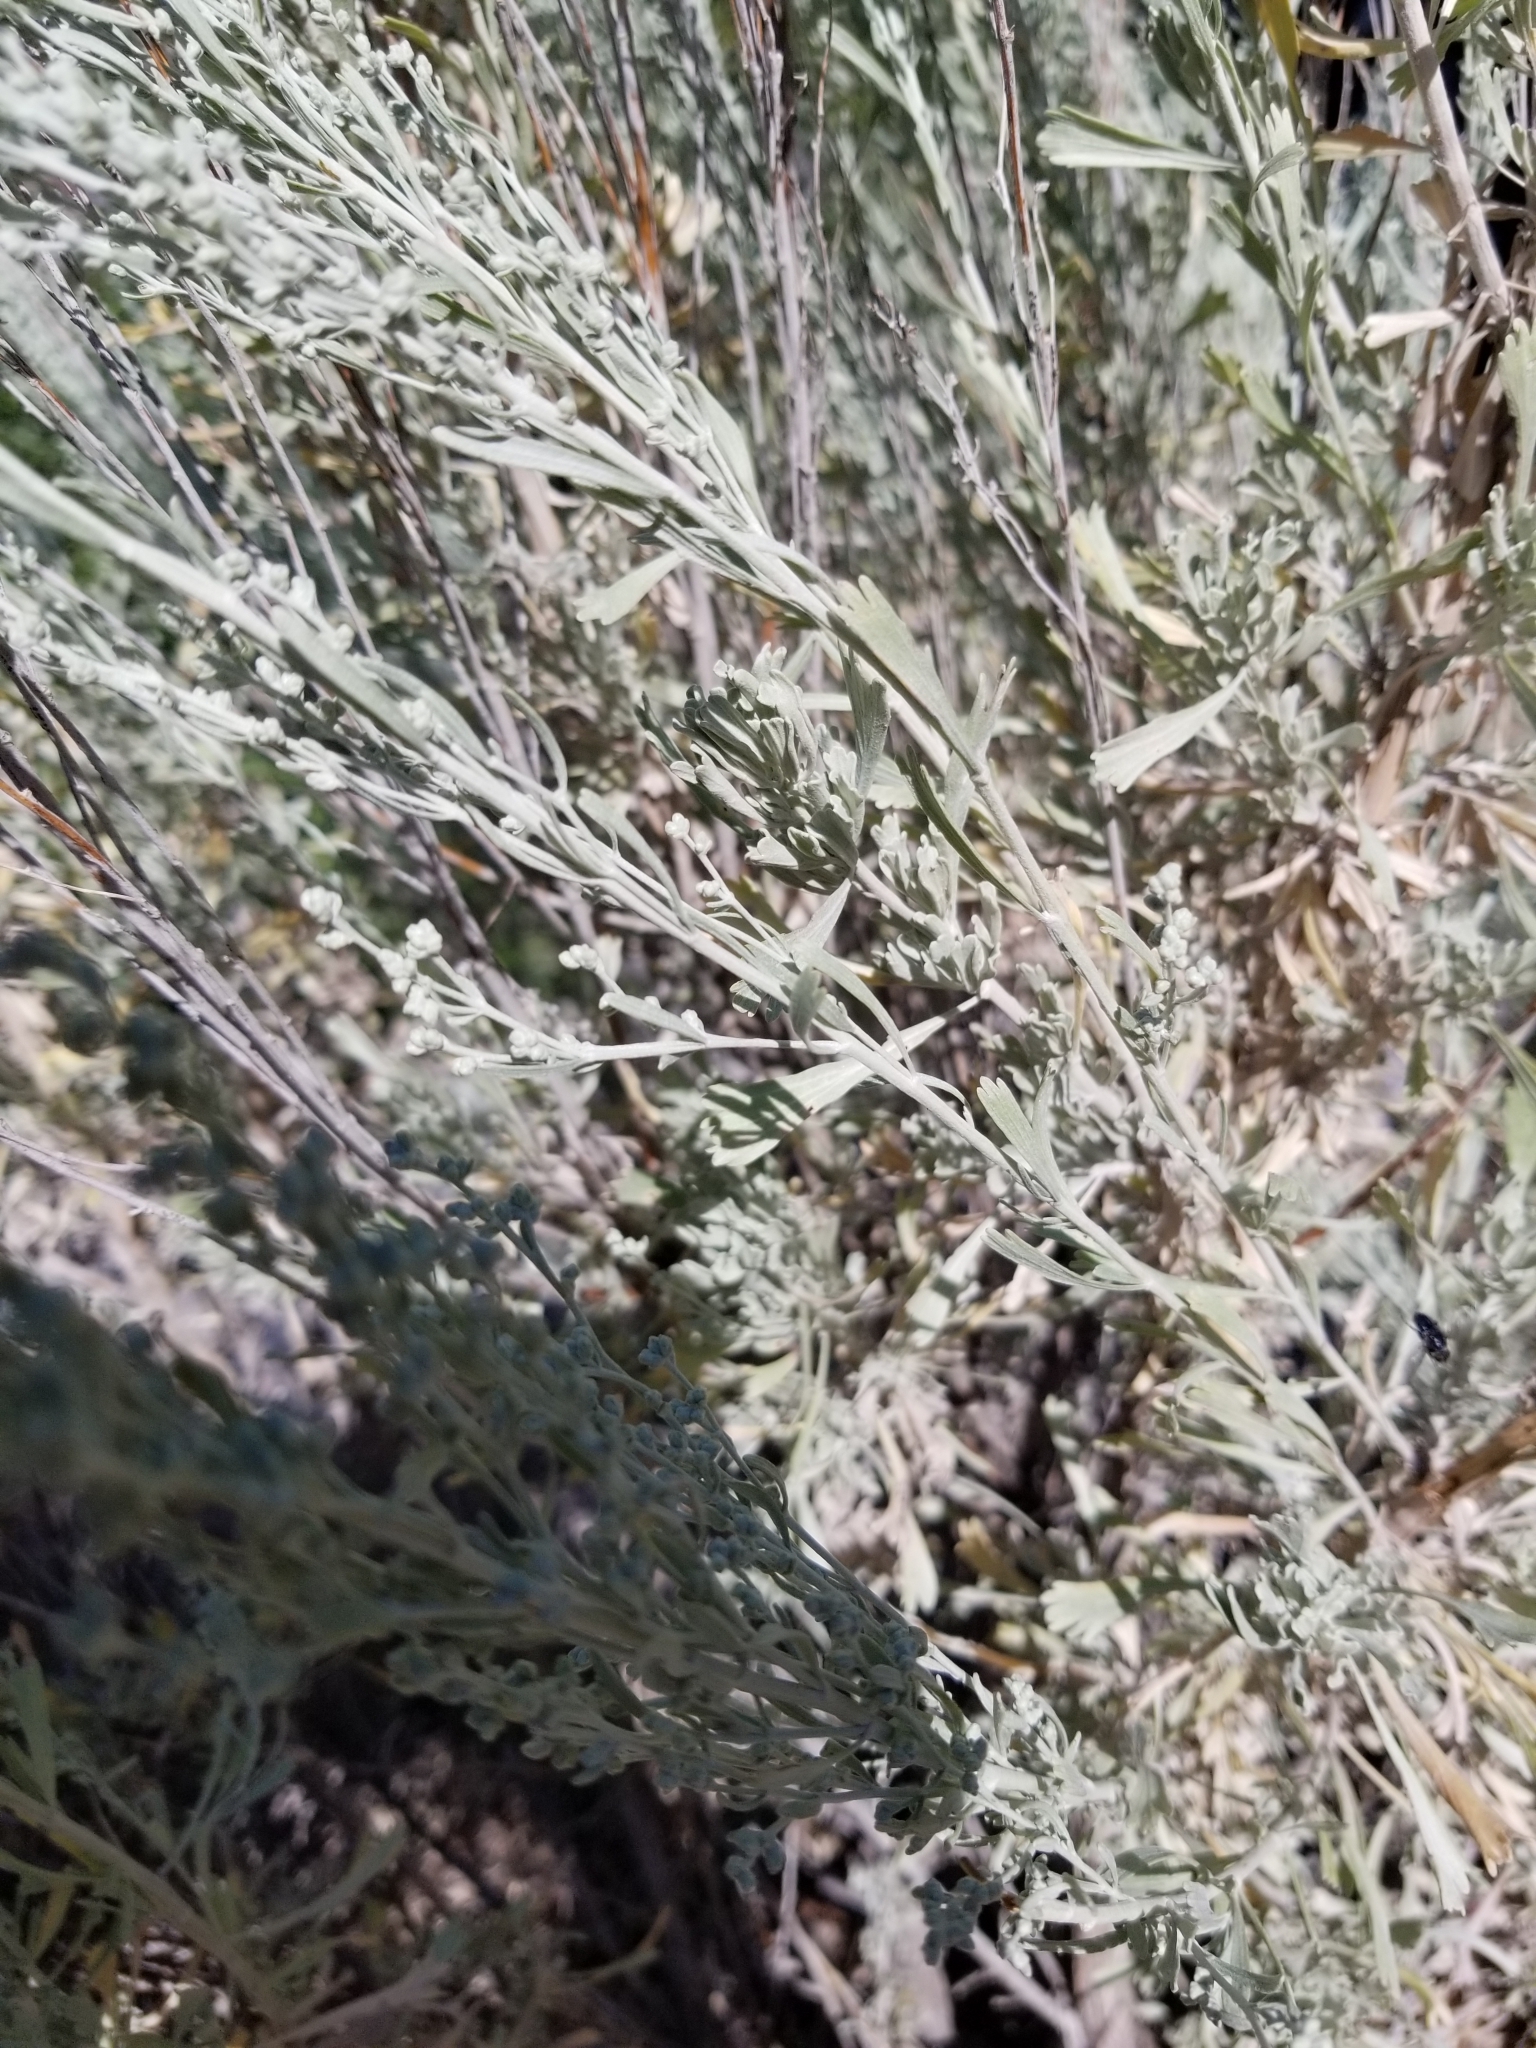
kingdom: Plantae
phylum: Tracheophyta
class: Magnoliopsida
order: Asterales
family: Asteraceae
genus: Artemisia
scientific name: Artemisia tridentata
